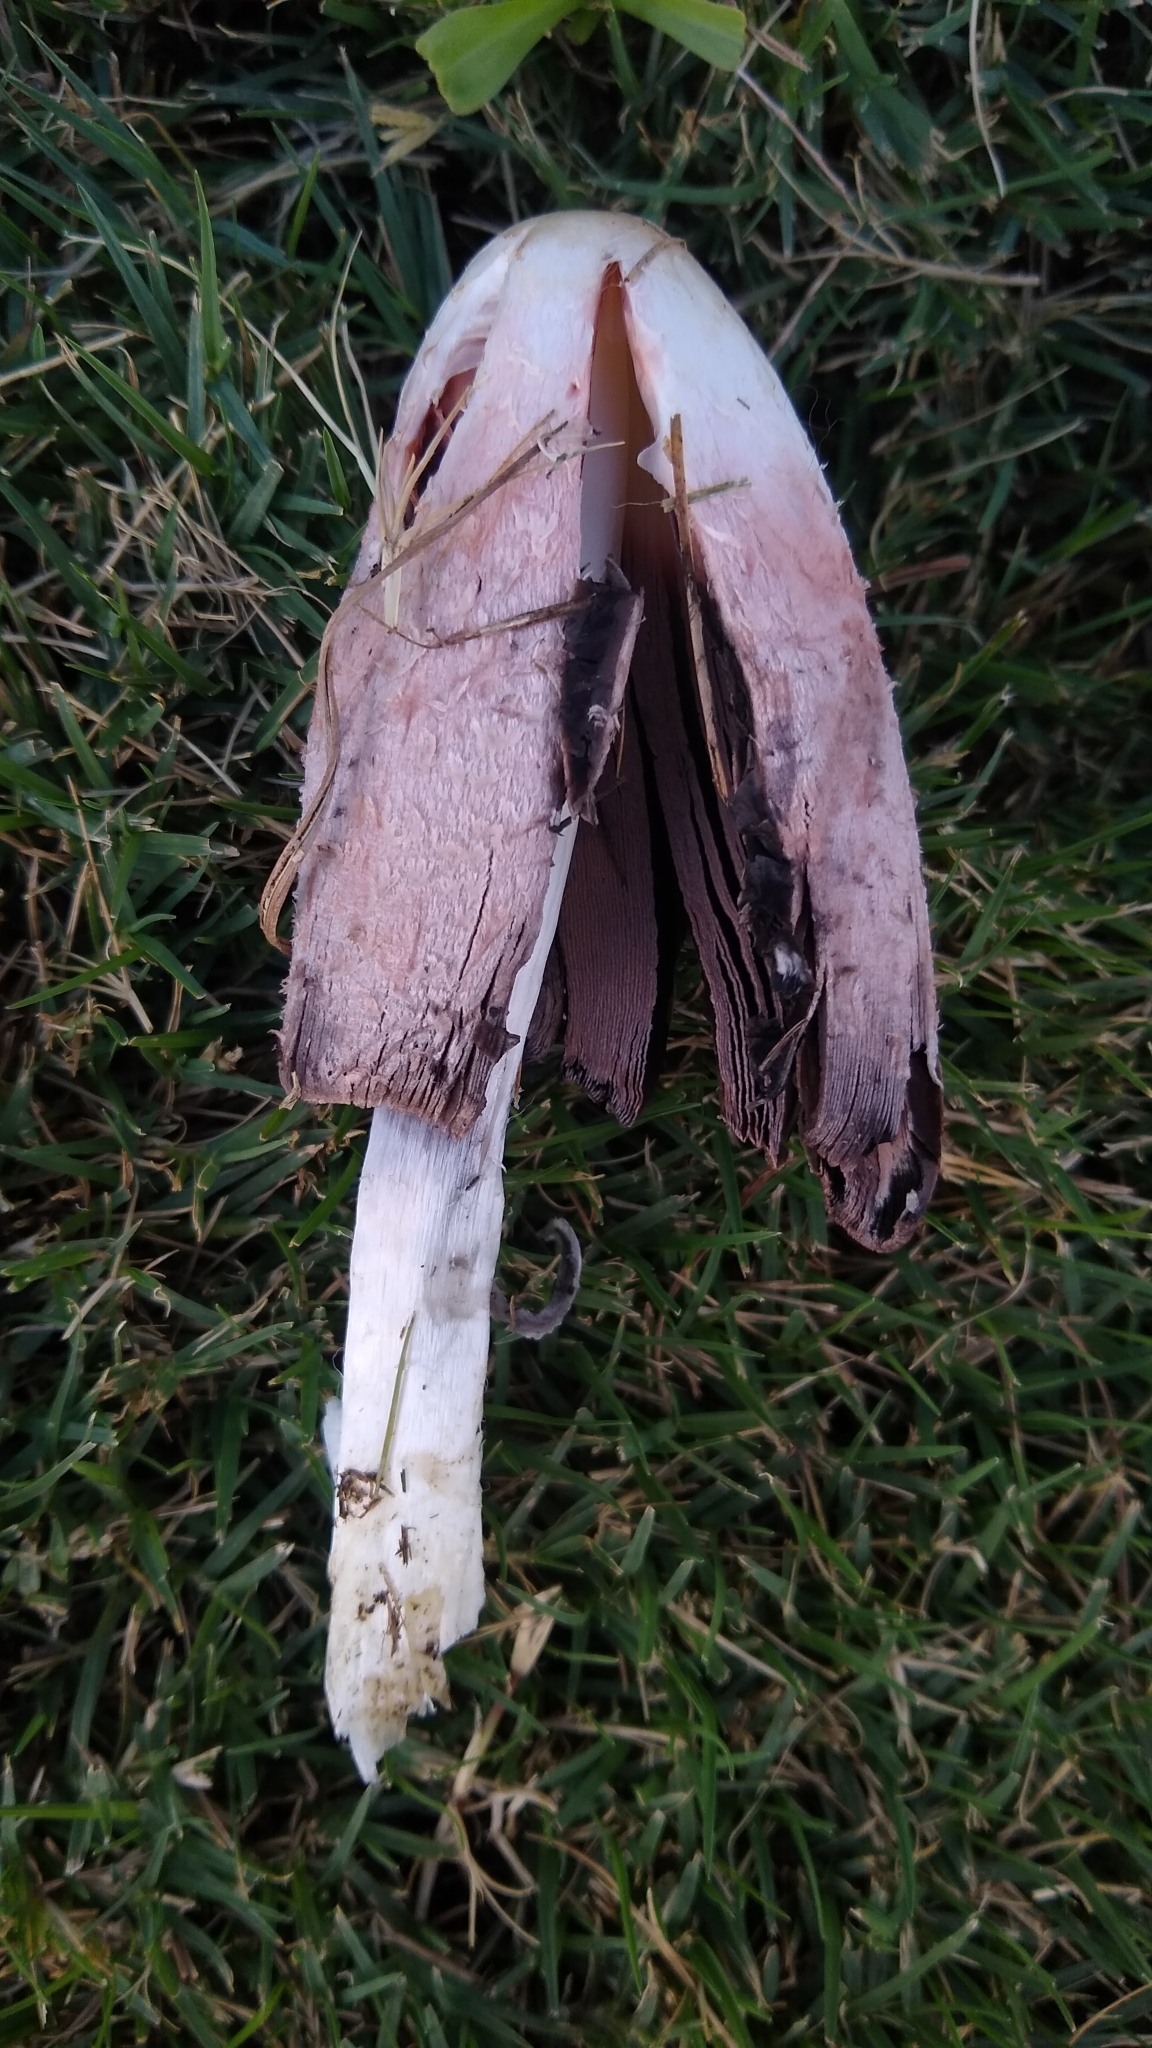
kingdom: Fungi
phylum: Basidiomycota
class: Agaricomycetes
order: Agaricales
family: Agaricaceae
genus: Coprinus
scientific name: Coprinus comatus
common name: Lawyer's wig
